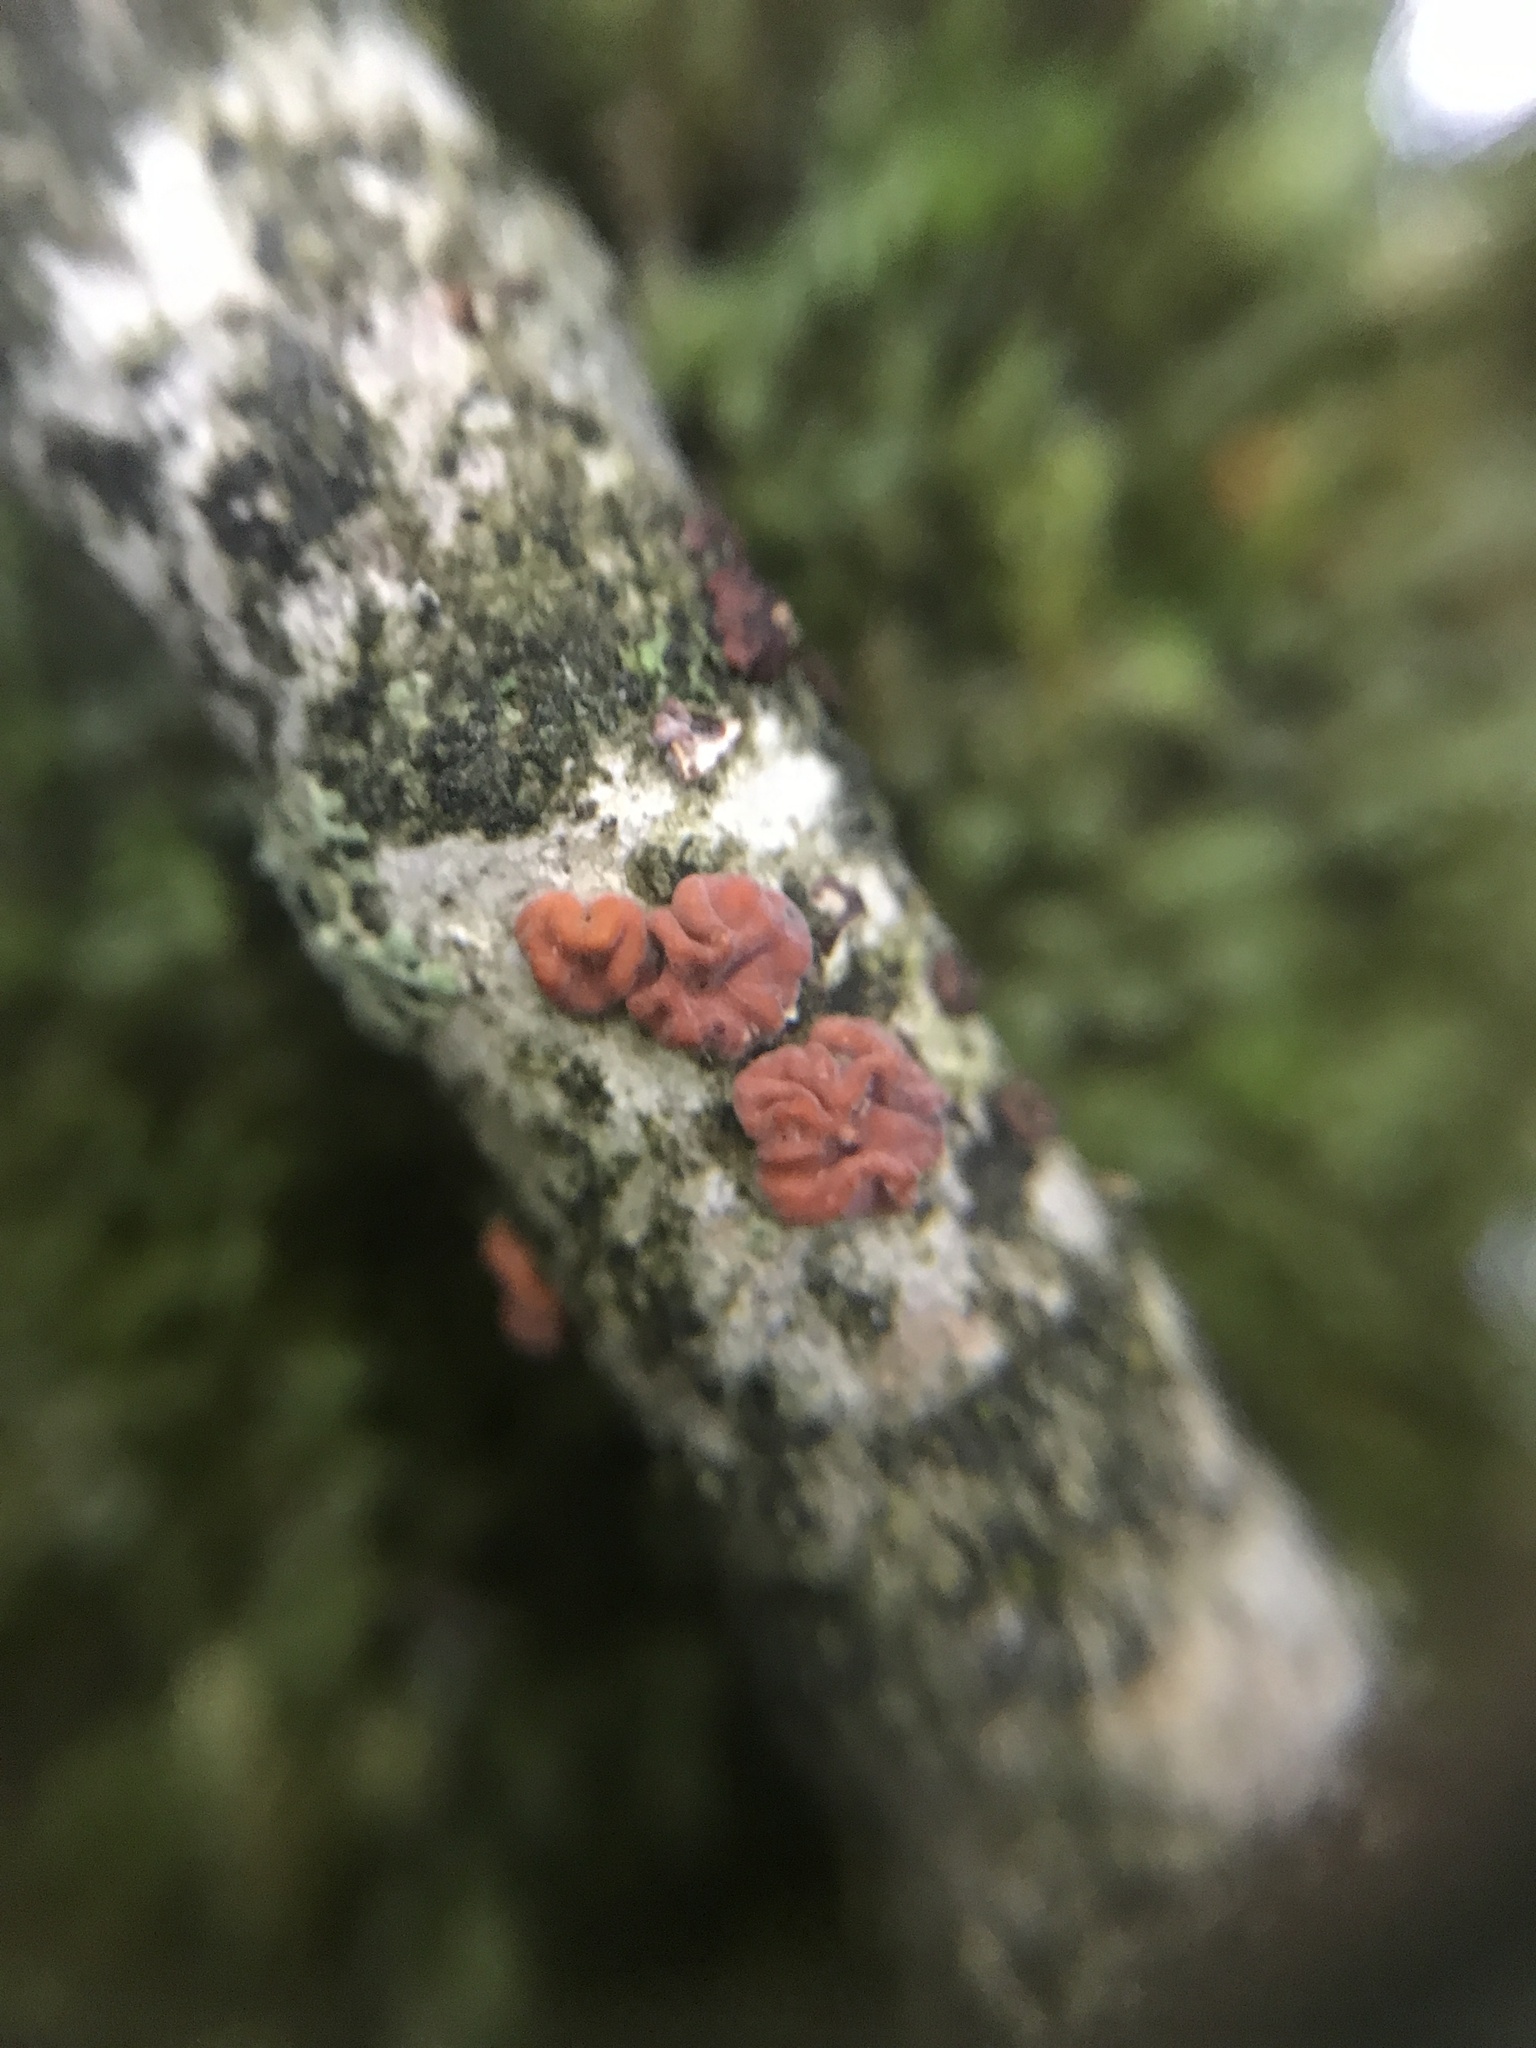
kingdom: Fungi
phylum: Basidiomycota
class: Agaricomycetes
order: Russulales
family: Peniophoraceae
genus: Peniophora
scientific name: Peniophora rufa
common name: Red tree brain fungus
